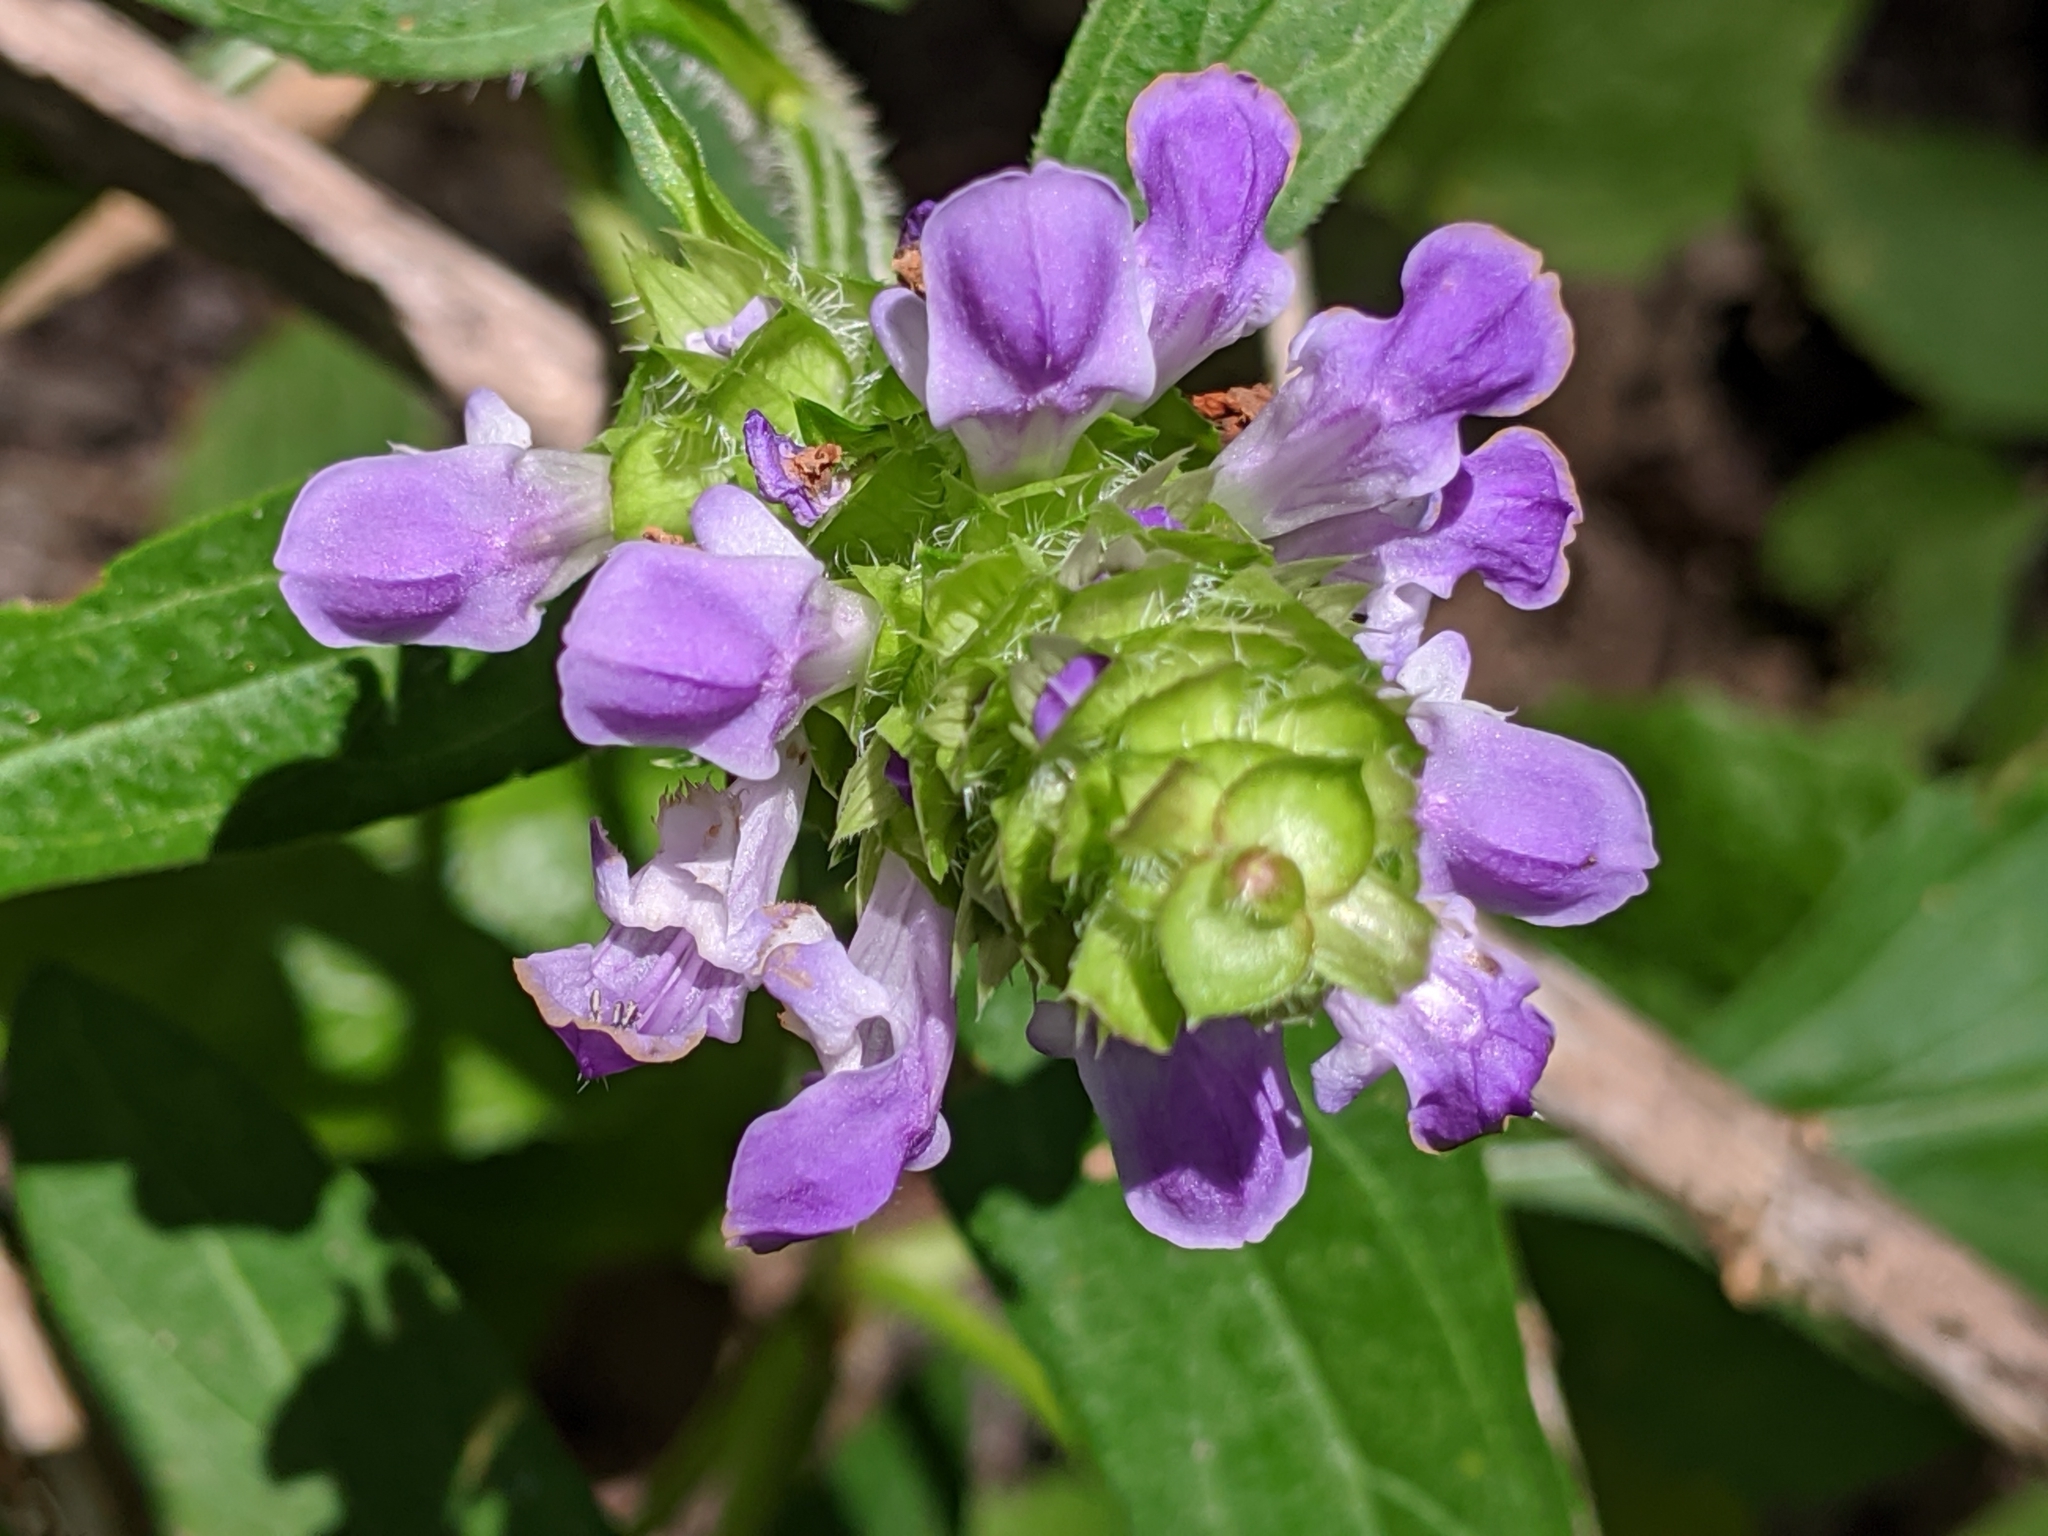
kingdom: Plantae
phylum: Tracheophyta
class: Magnoliopsida
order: Lamiales
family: Lamiaceae
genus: Prunella
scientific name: Prunella vulgaris
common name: Heal-all
